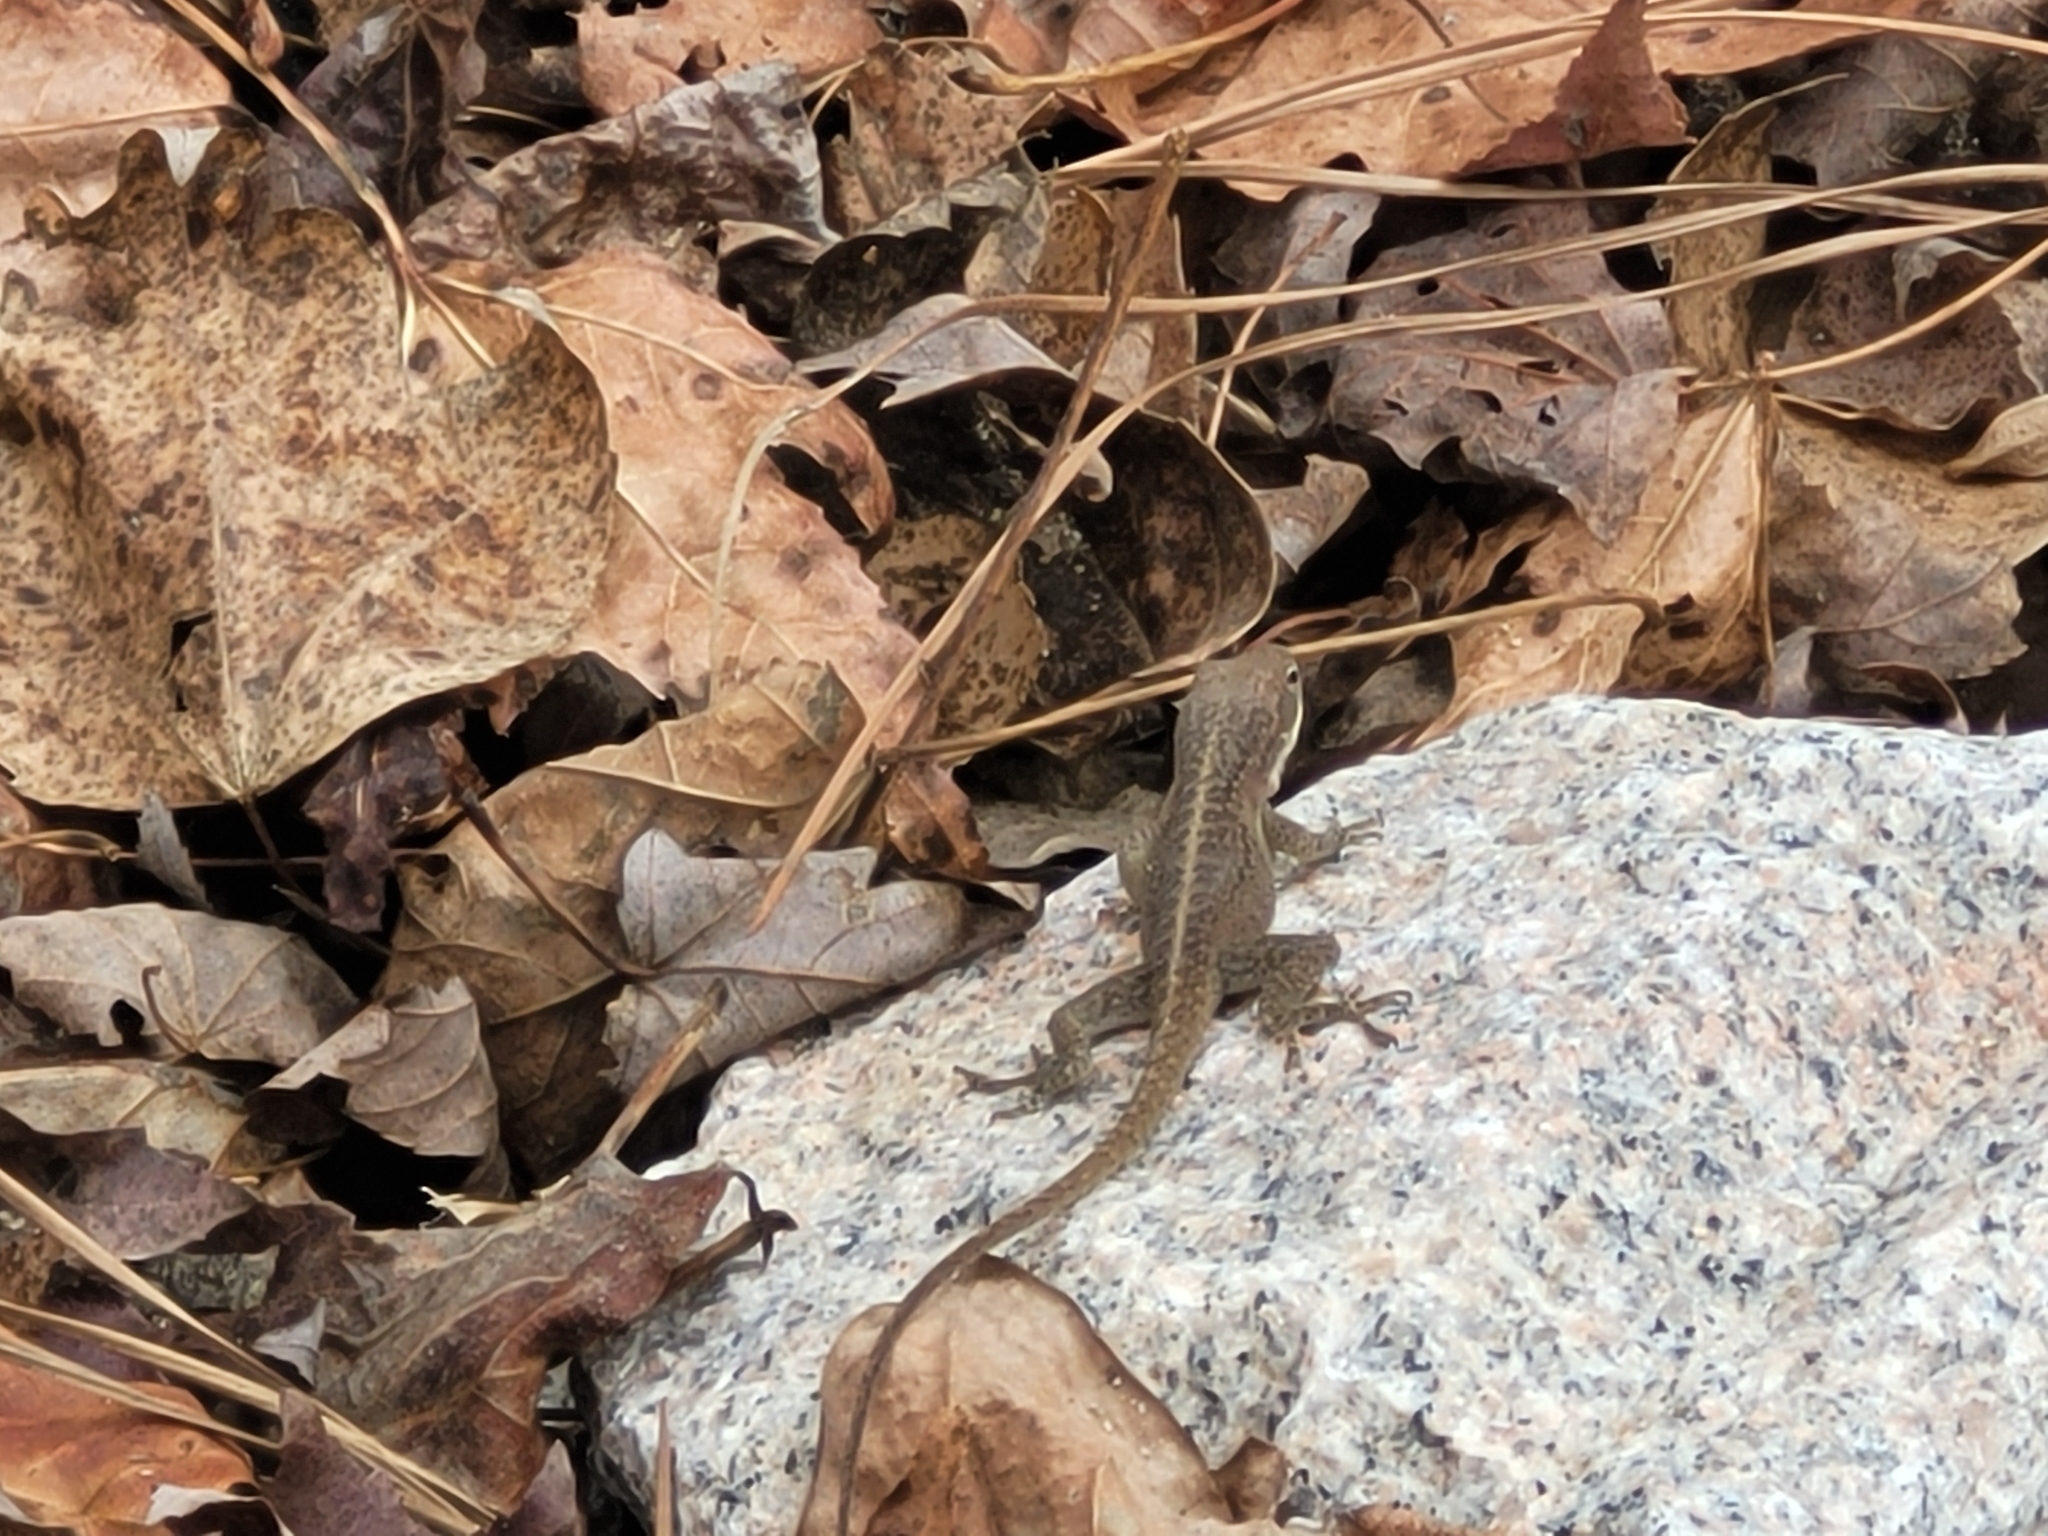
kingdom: Animalia
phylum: Chordata
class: Squamata
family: Dactyloidae
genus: Anolis
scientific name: Anolis carolinensis
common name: Green anole
